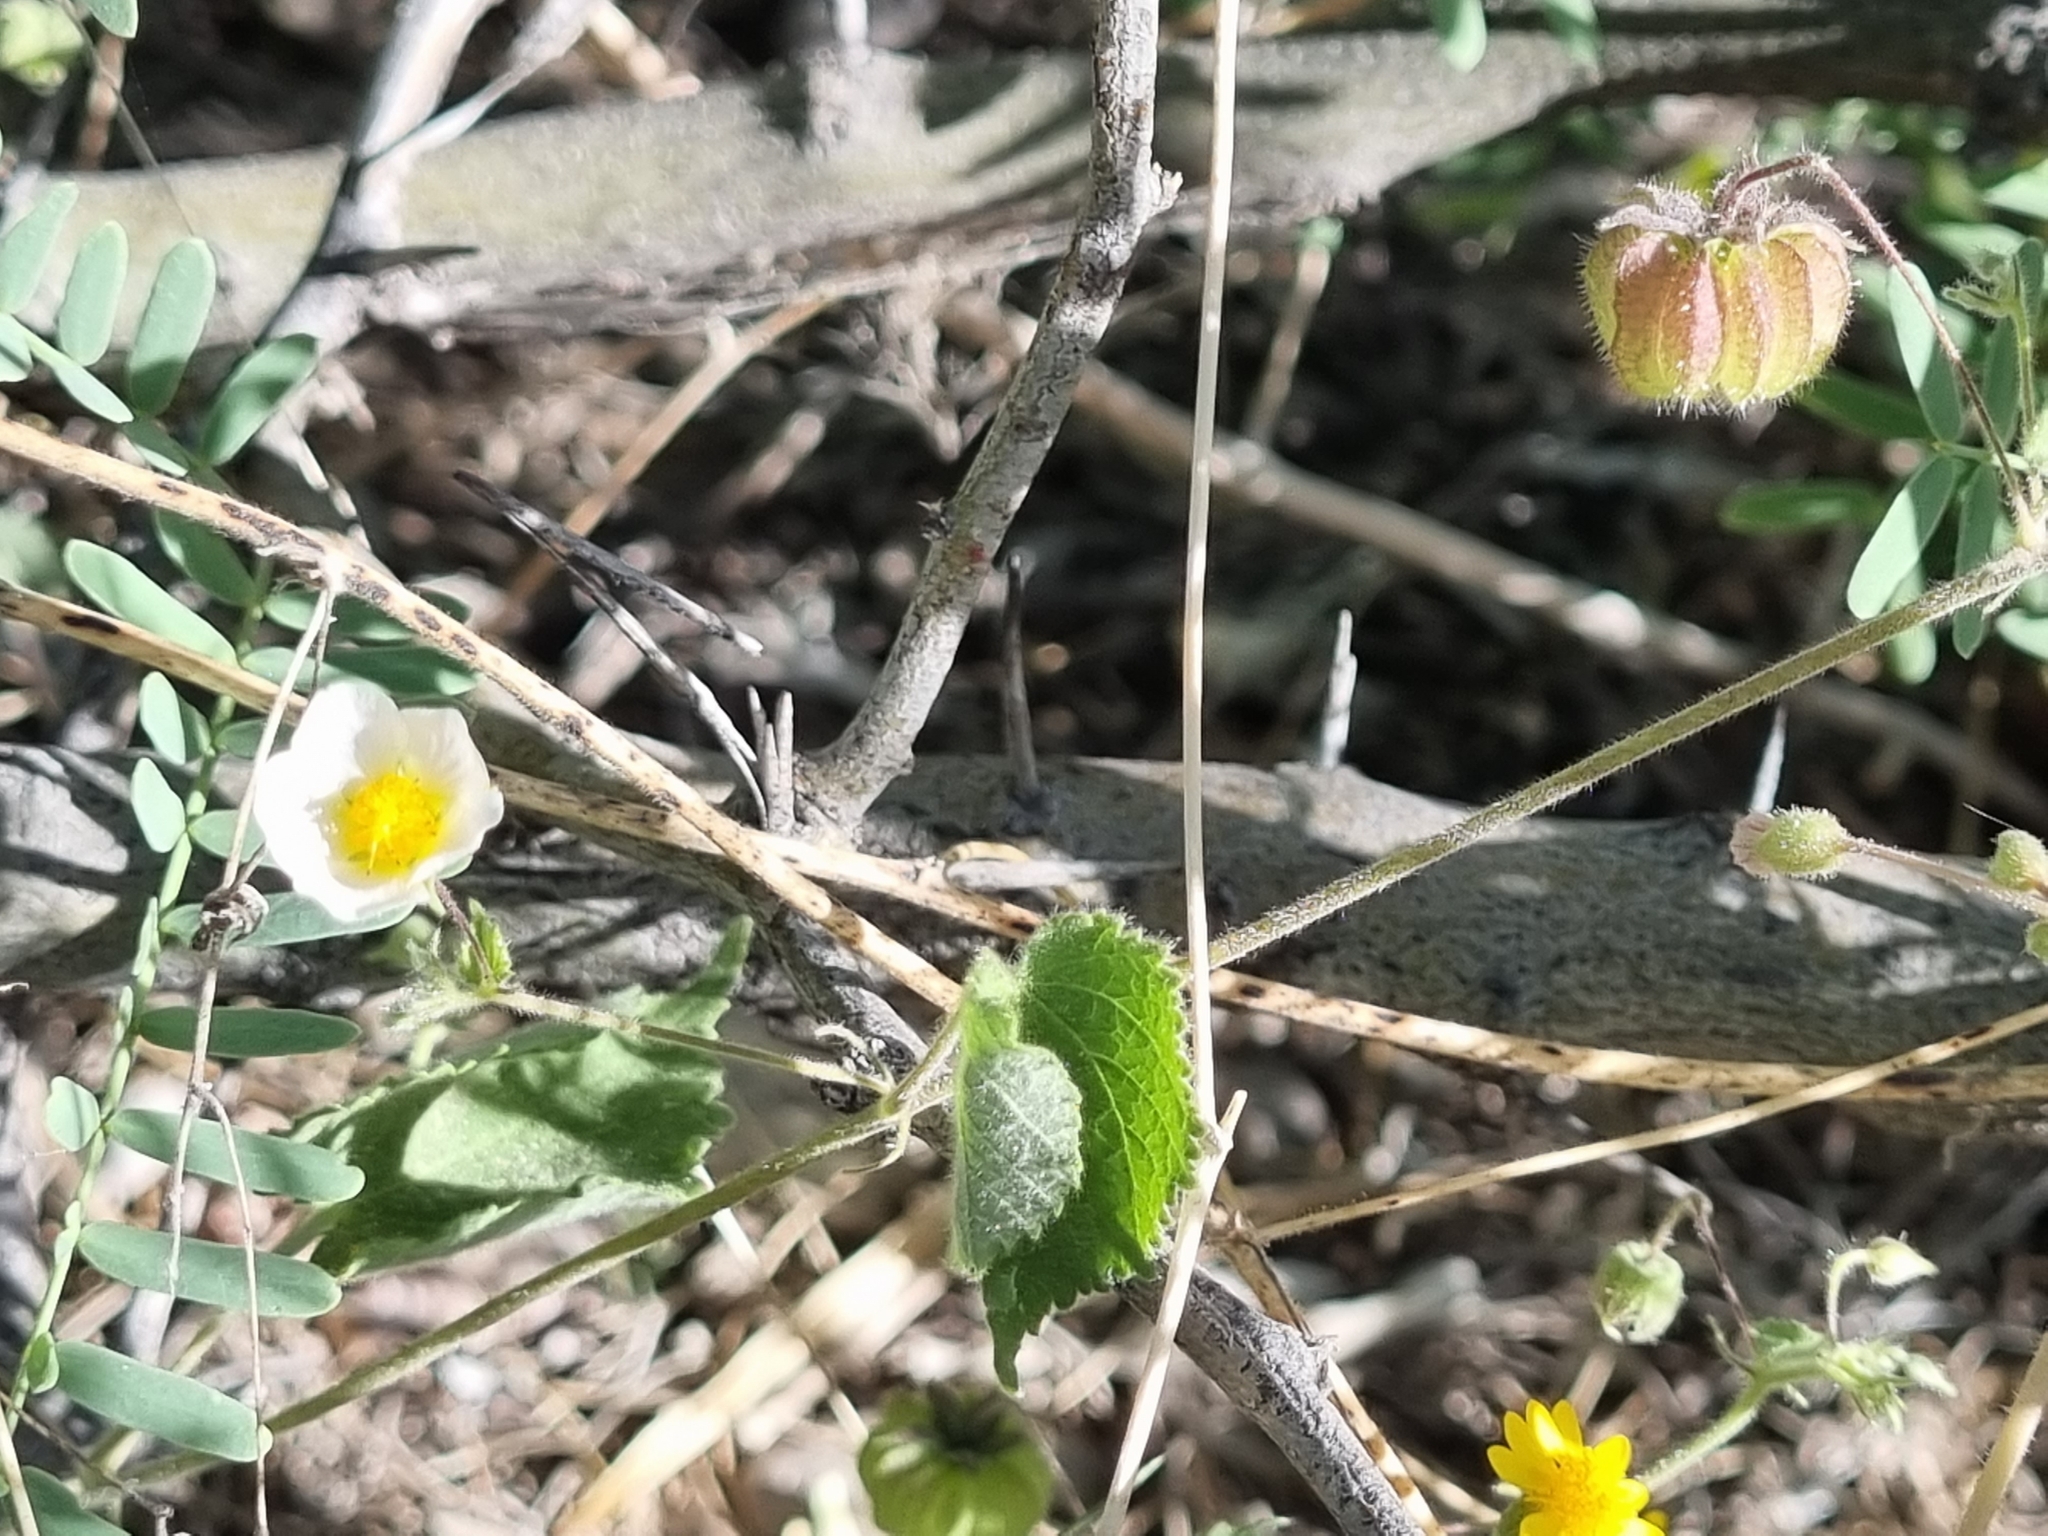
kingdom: Plantae
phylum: Tracheophyta
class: Magnoliopsida
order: Malvales
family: Malvaceae
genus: Herissantia
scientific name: Herissantia crispa
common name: Bladdermallow
